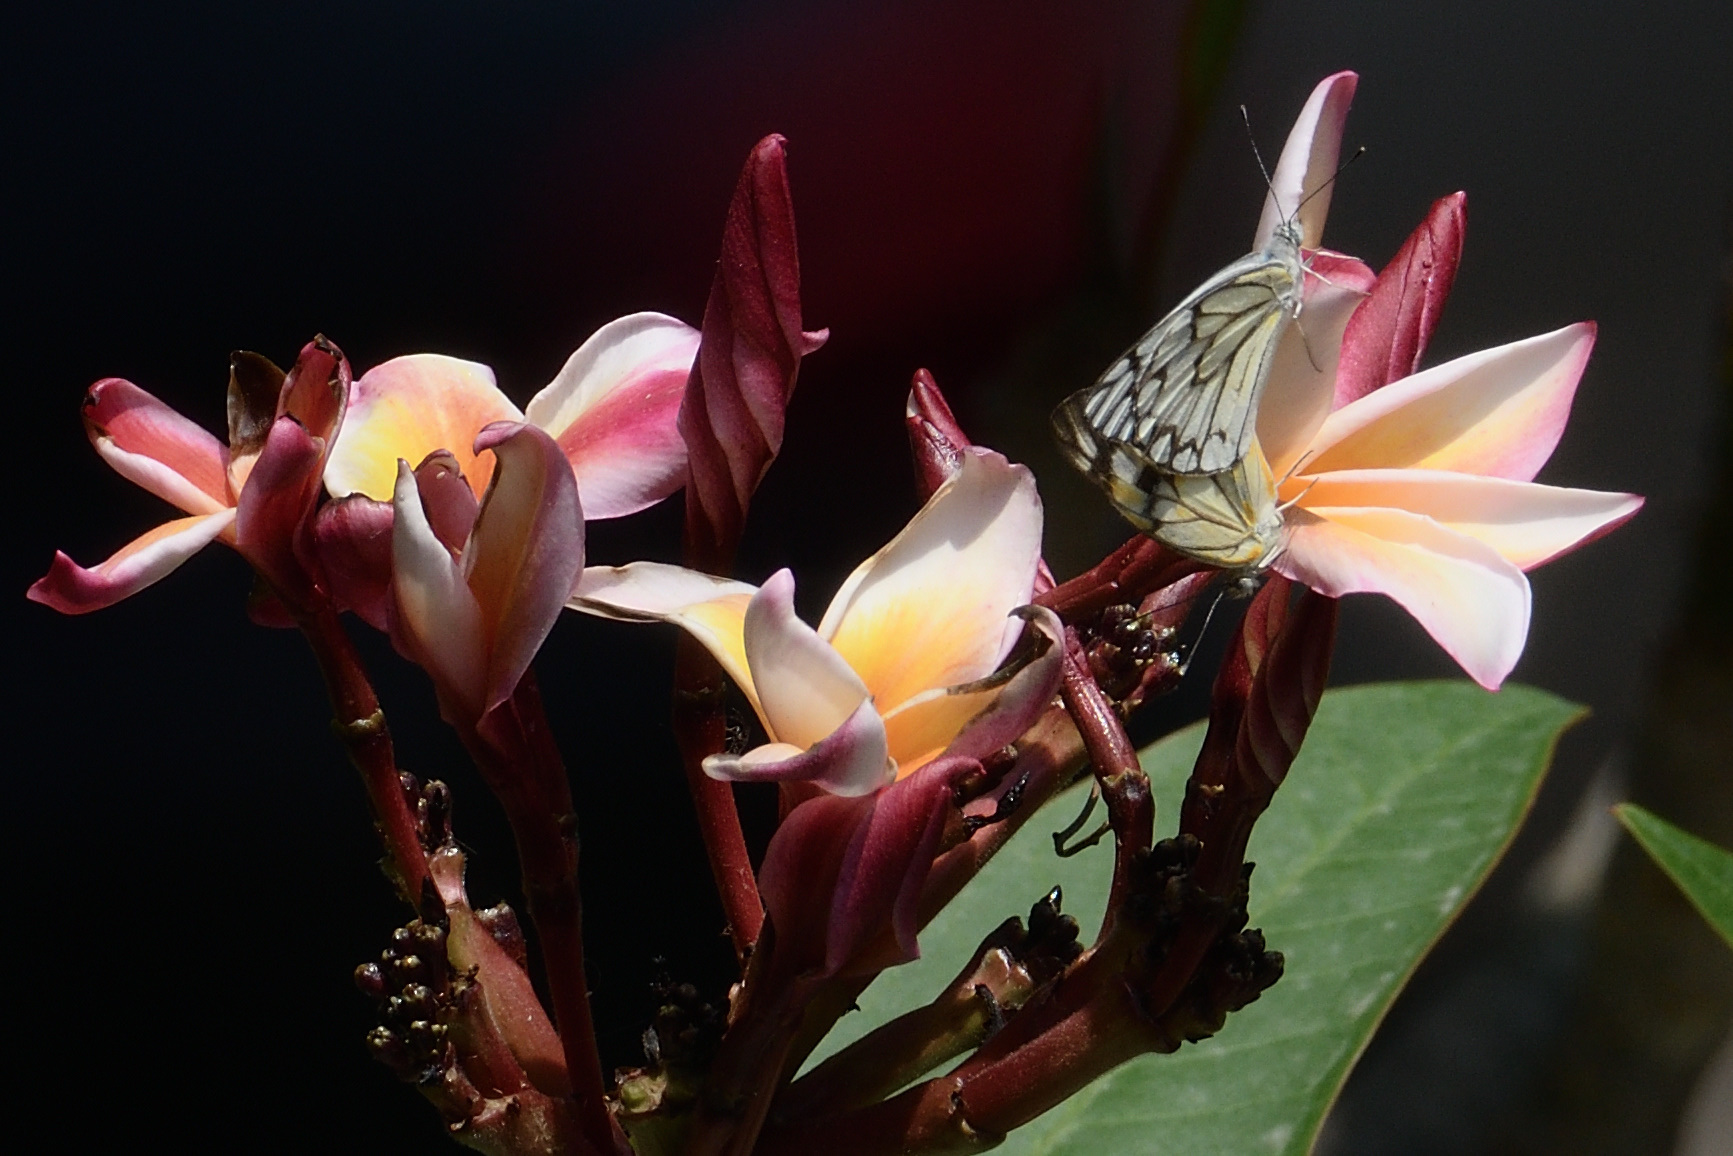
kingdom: Animalia
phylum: Arthropoda
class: Insecta
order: Lepidoptera
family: Pieridae
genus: Belenois
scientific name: Belenois aurota
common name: Brown-veined white
